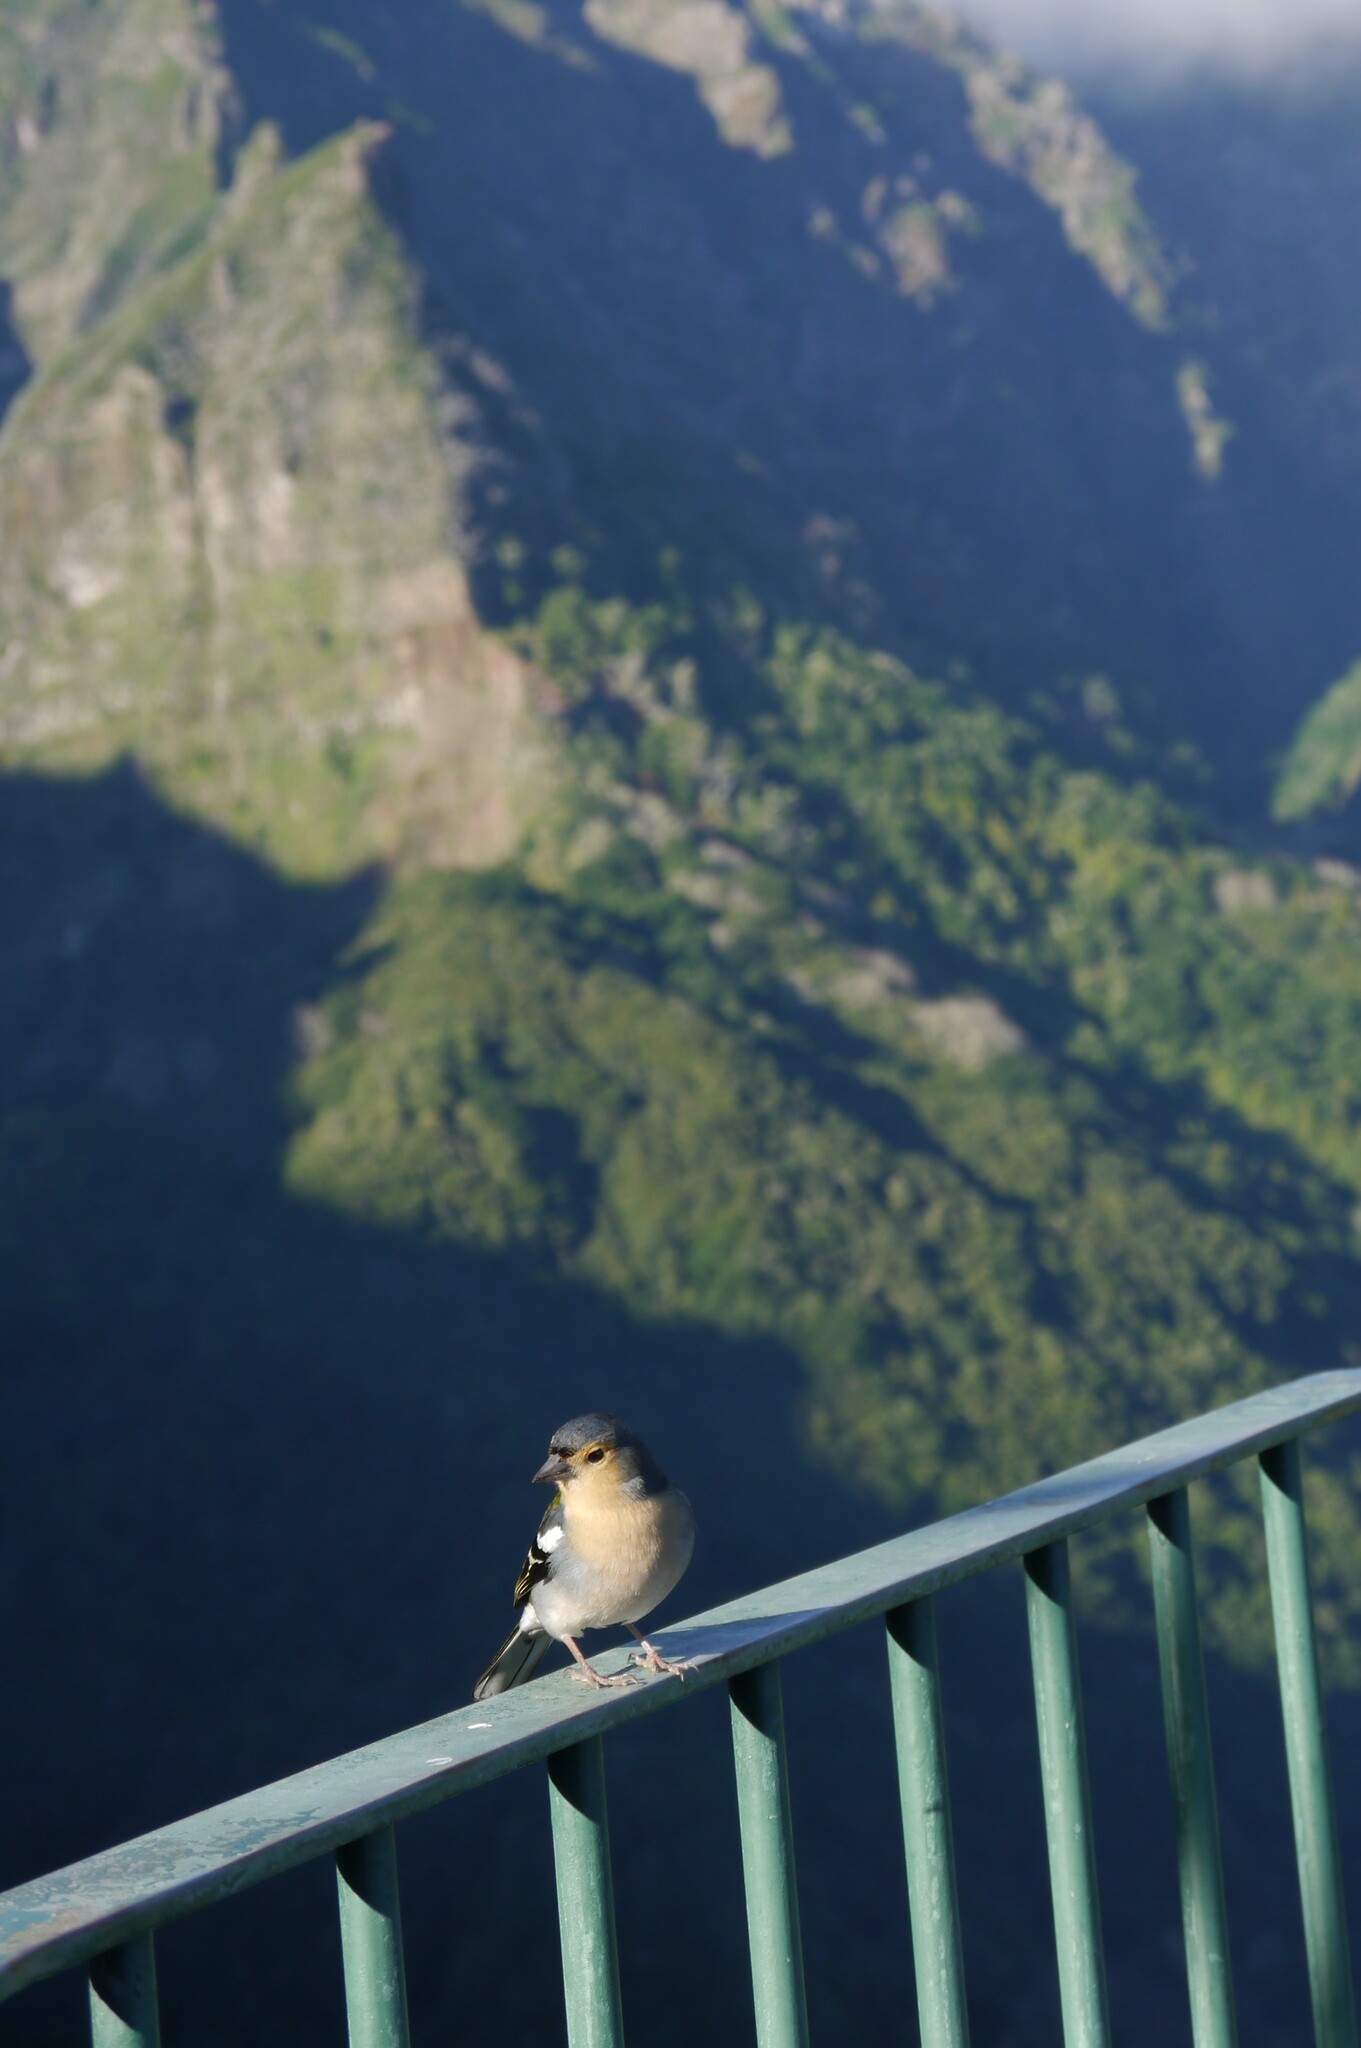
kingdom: Animalia
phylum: Chordata
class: Aves
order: Passeriformes
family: Fringillidae
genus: Fringilla
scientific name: Fringilla maderensis
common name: Madeira chaffinch
